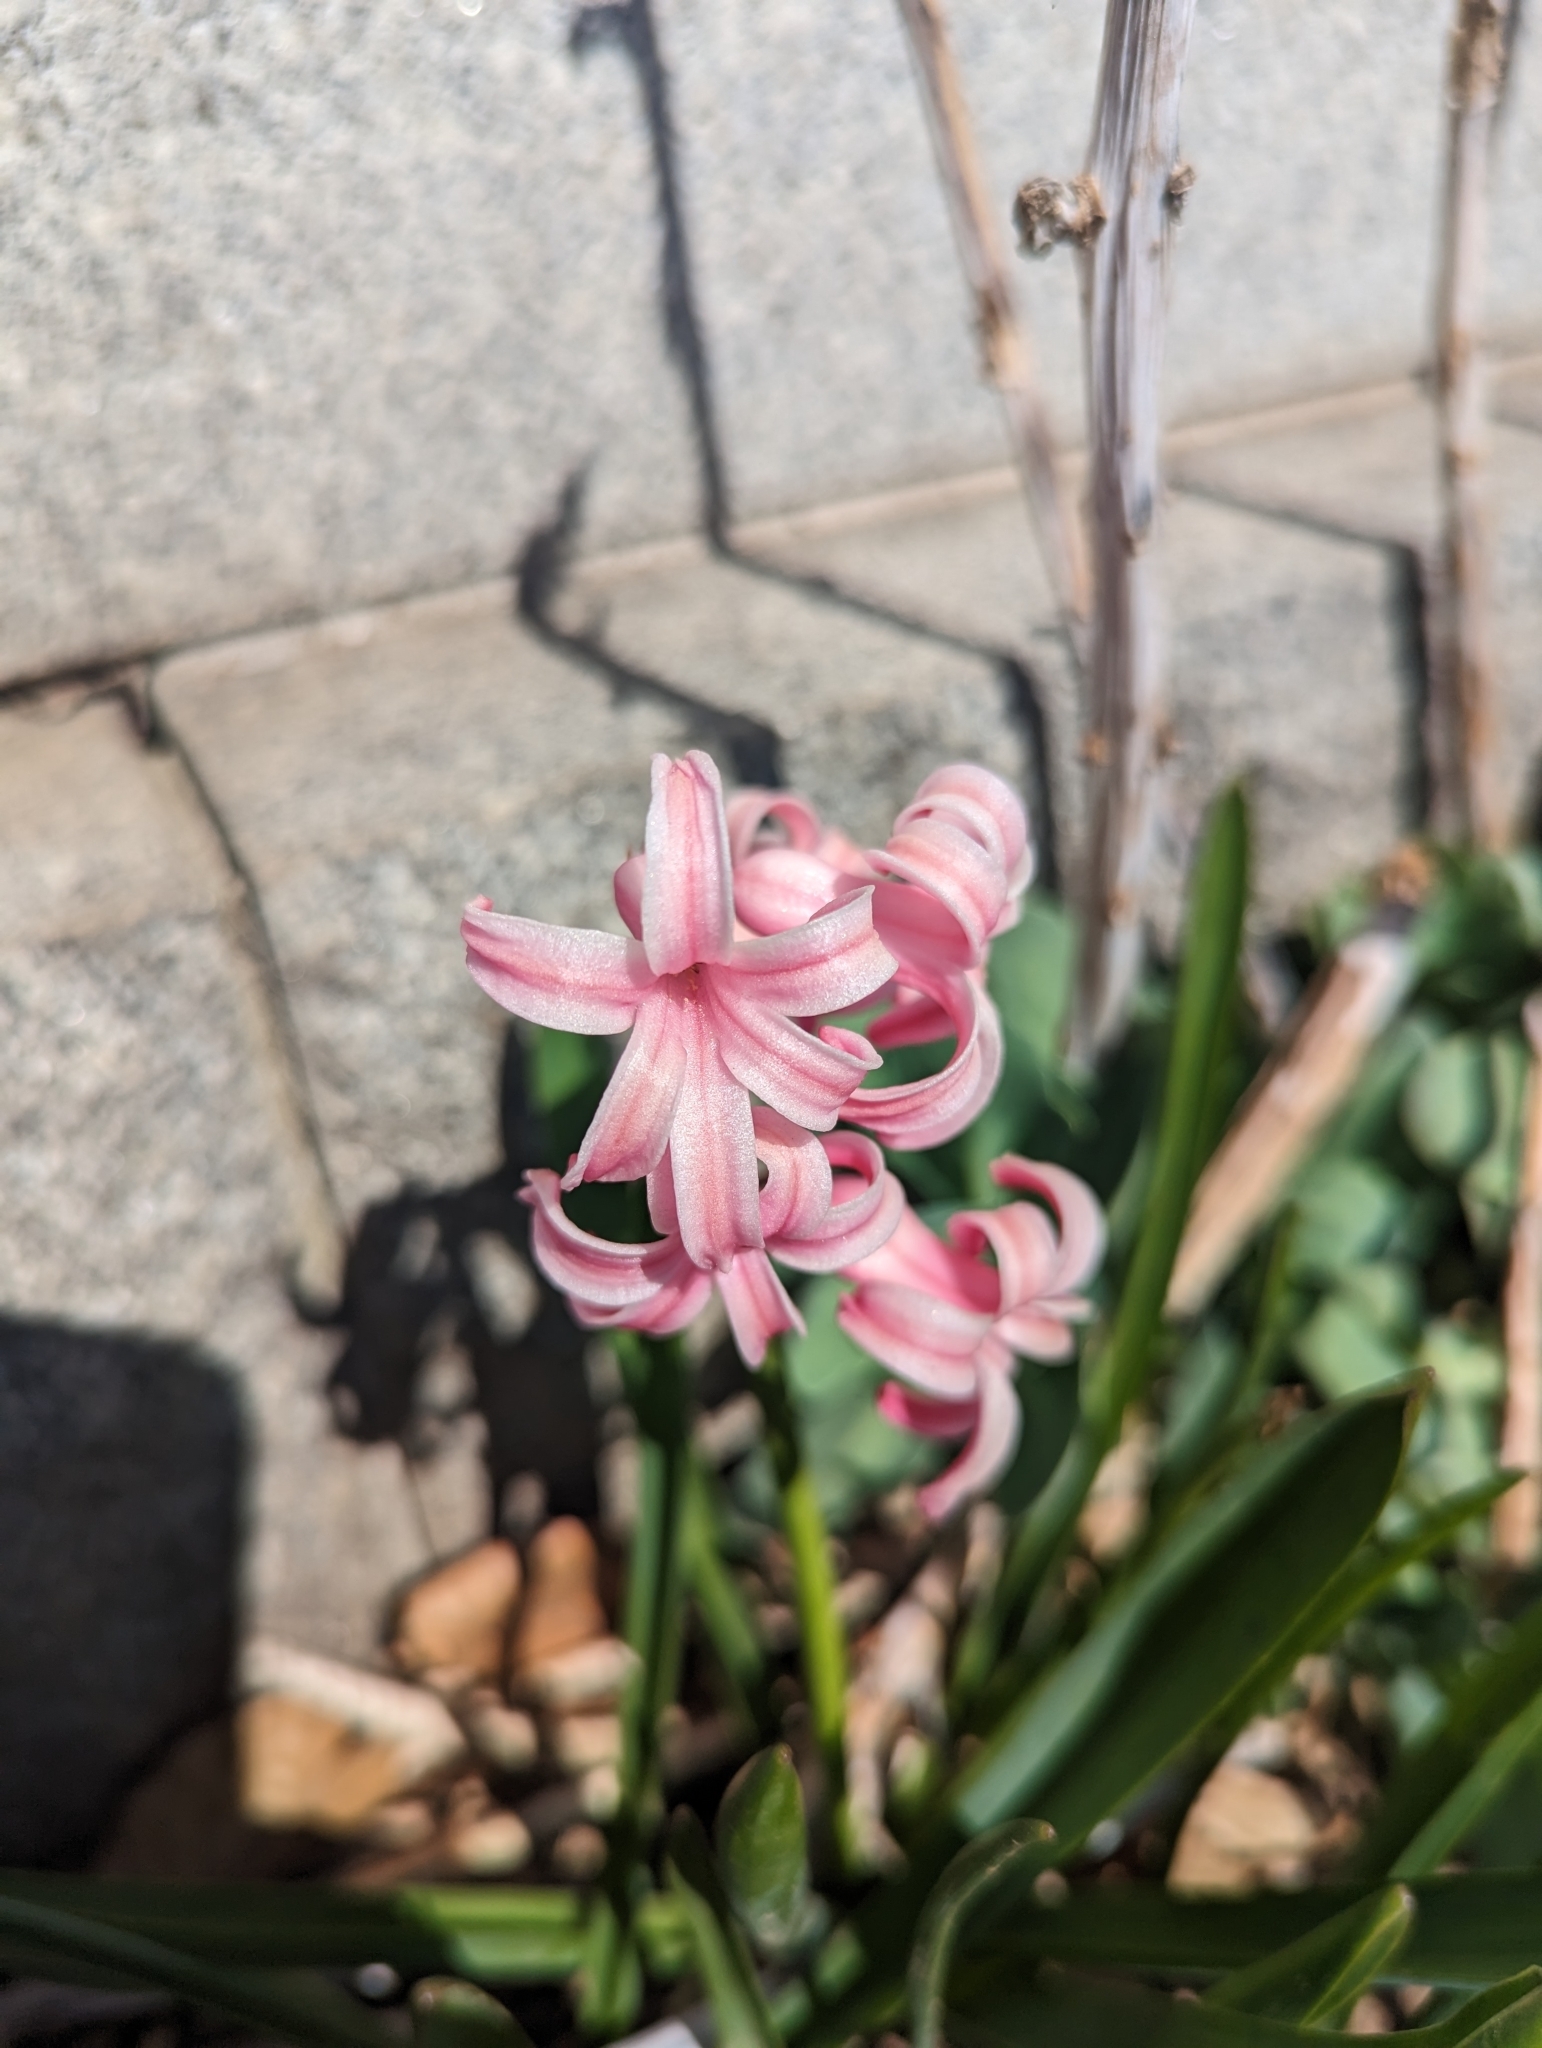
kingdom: Plantae
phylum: Tracheophyta
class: Liliopsida
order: Asparagales
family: Asparagaceae
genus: Hyacinthus
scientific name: Hyacinthus orientalis
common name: Hyacinth
